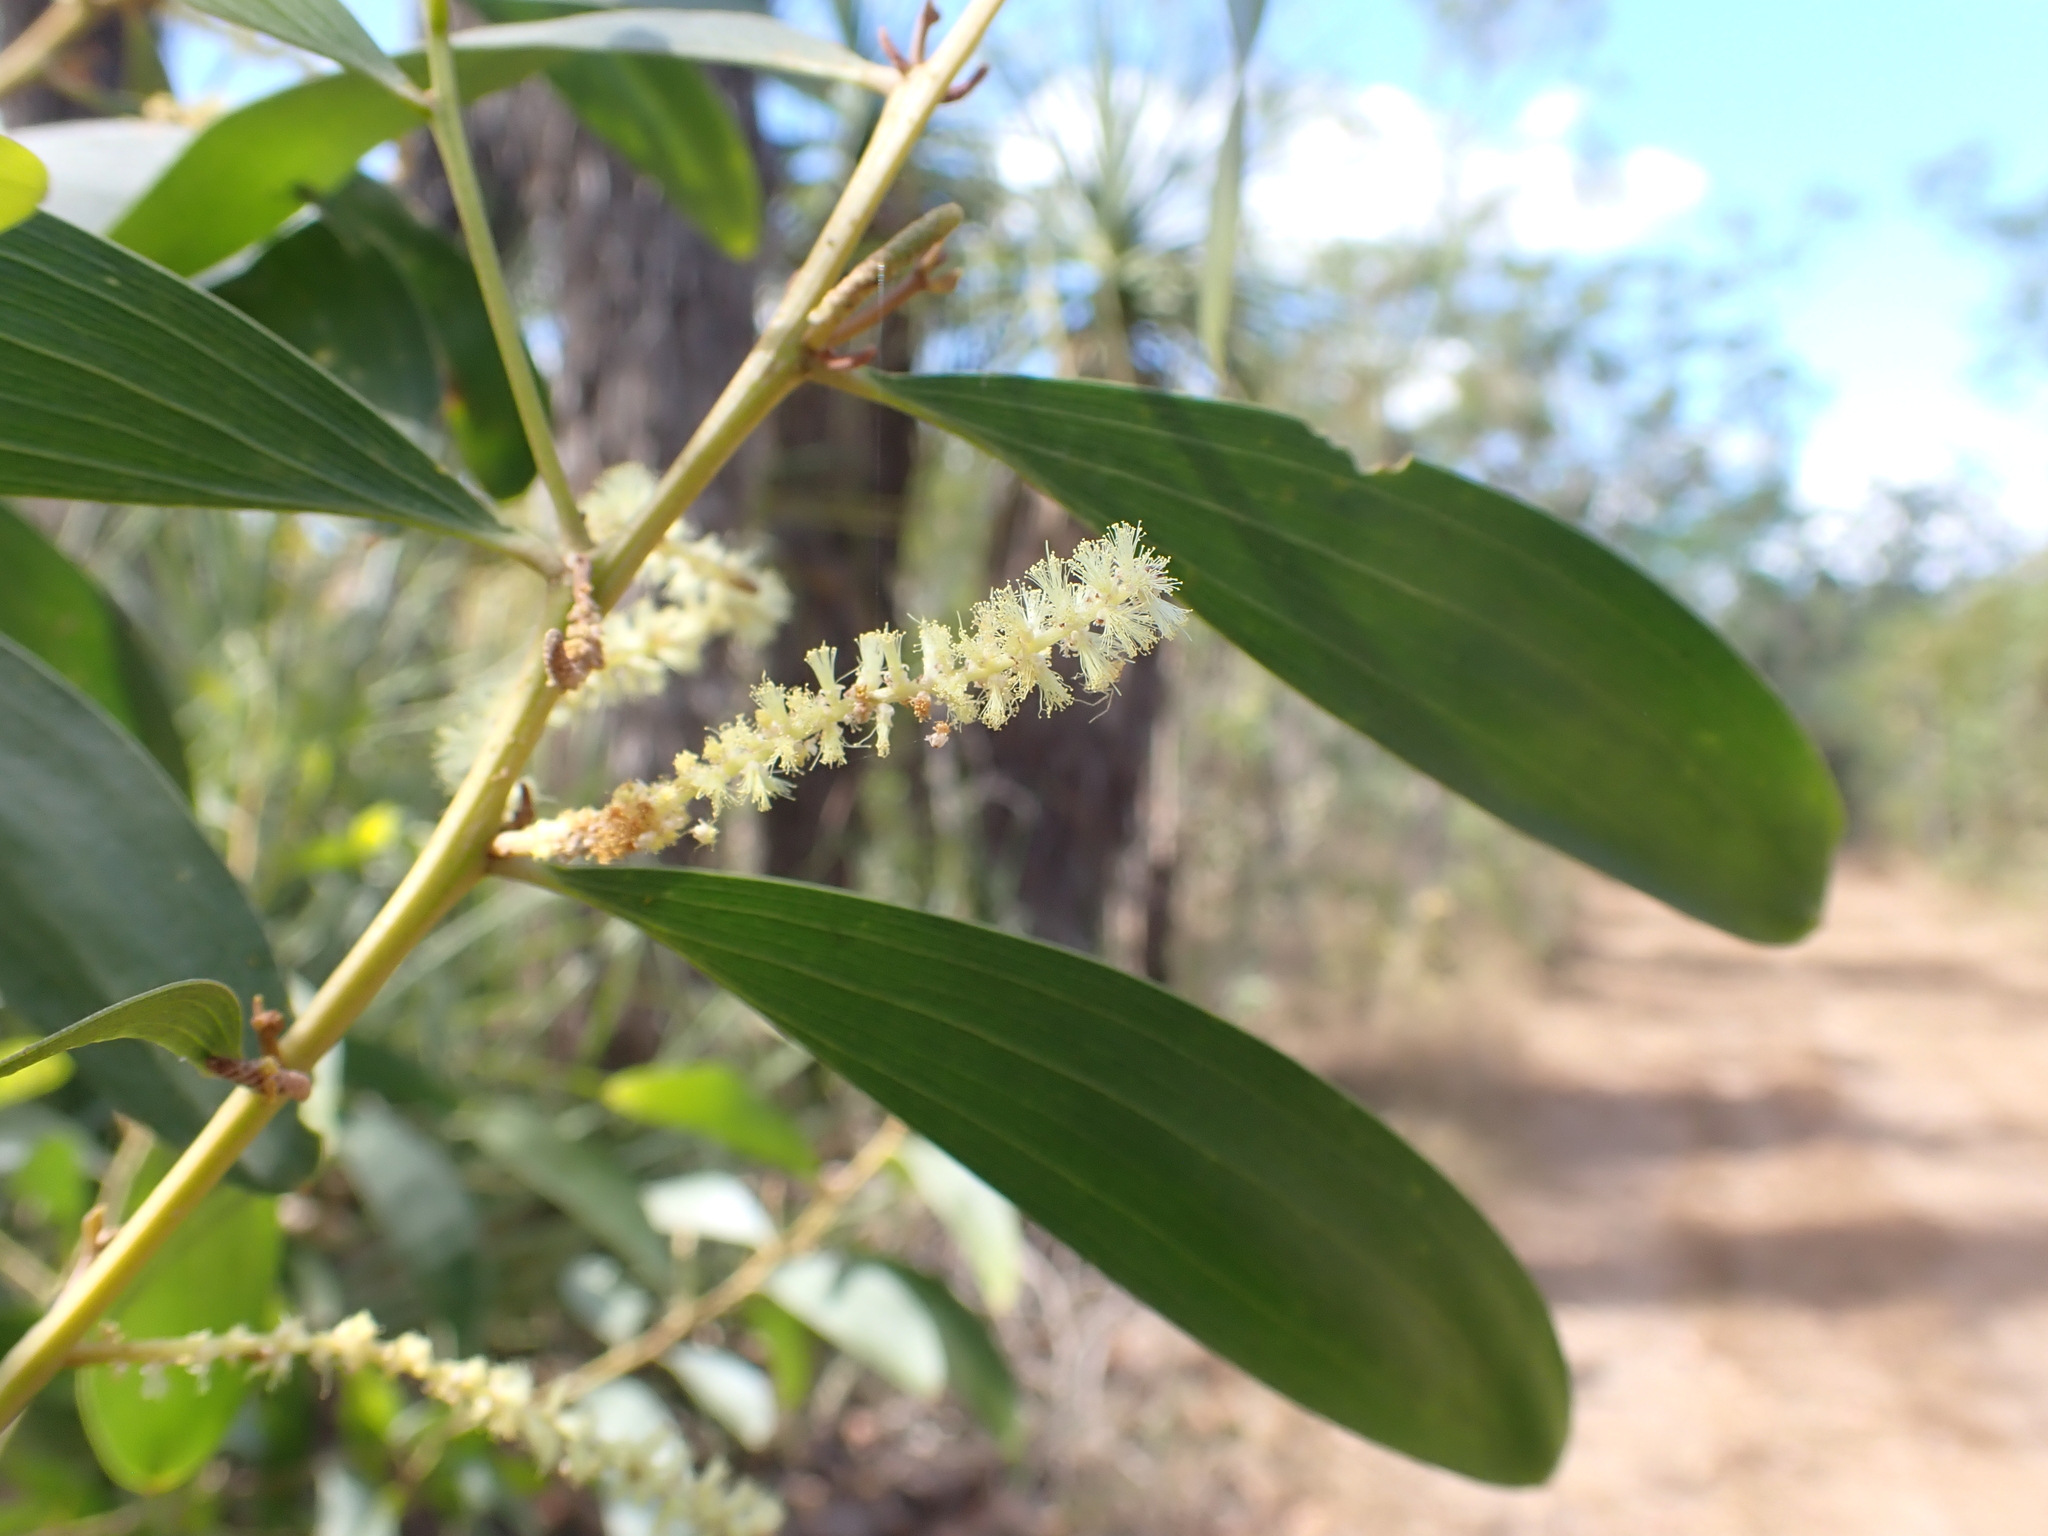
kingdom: Plantae
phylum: Tracheophyta
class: Magnoliopsida
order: Fabales
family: Fabaceae
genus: Acacia
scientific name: Acacia oncinocarpa
